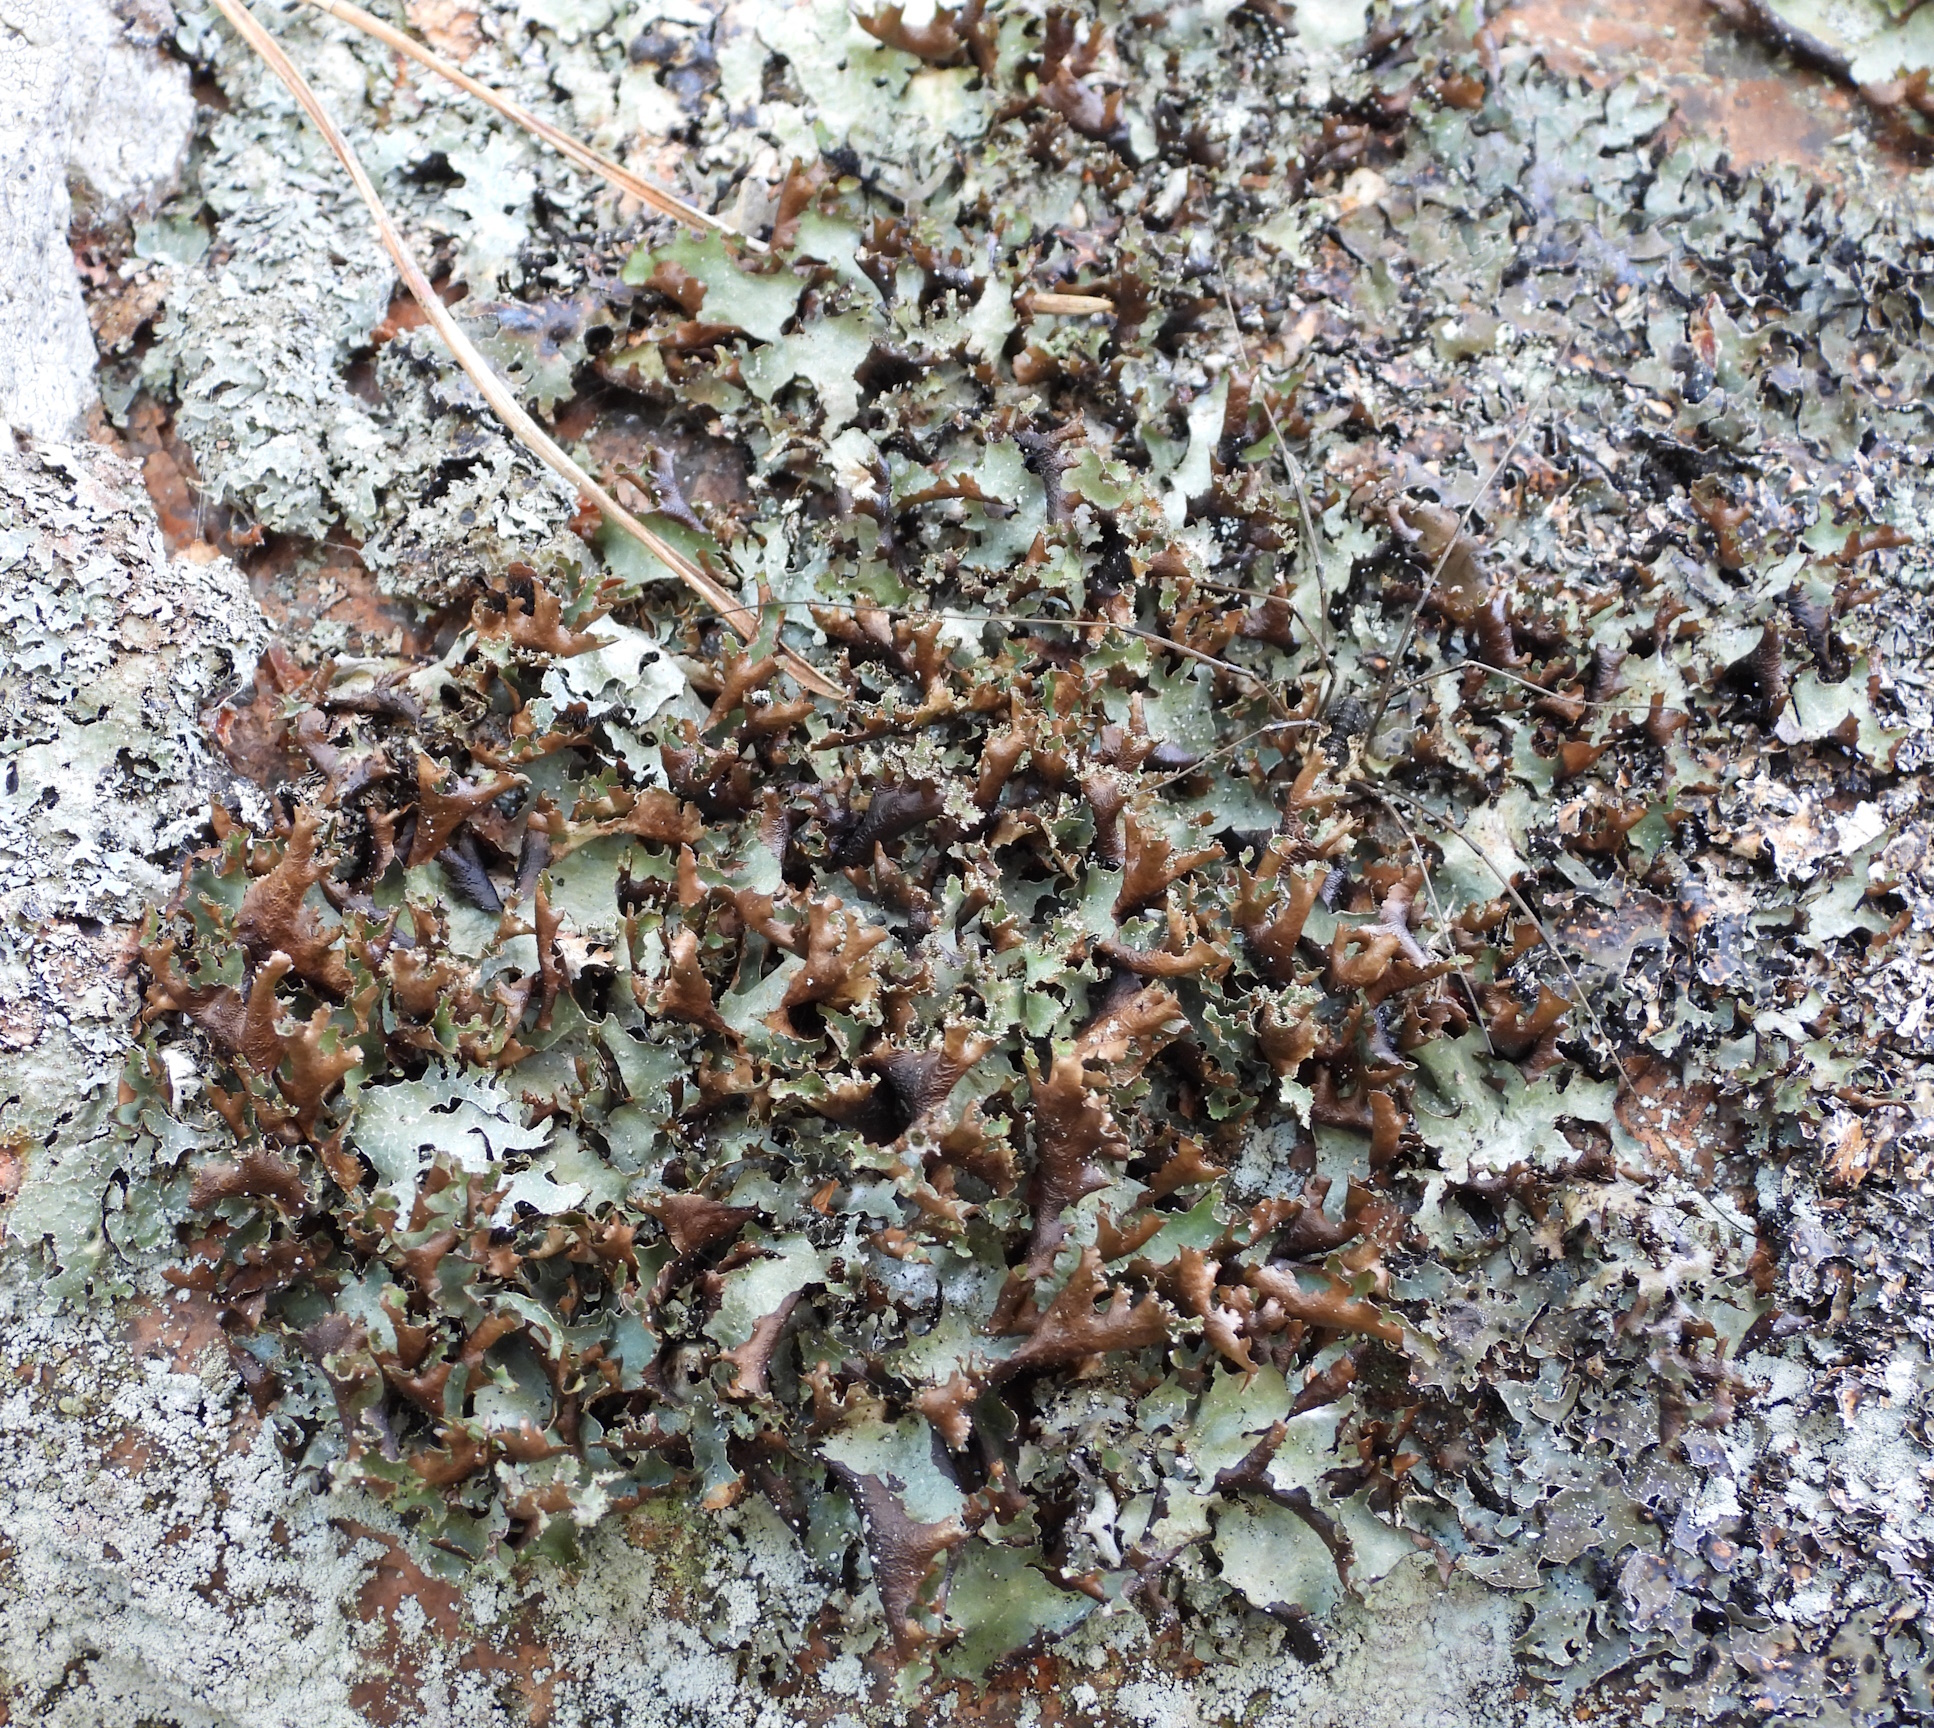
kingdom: Fungi
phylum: Ascomycota
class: Lecanoromycetes
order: Lecanorales
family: Parmeliaceae
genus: Platismatia
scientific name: Platismatia glauca
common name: Varied rag lichen
